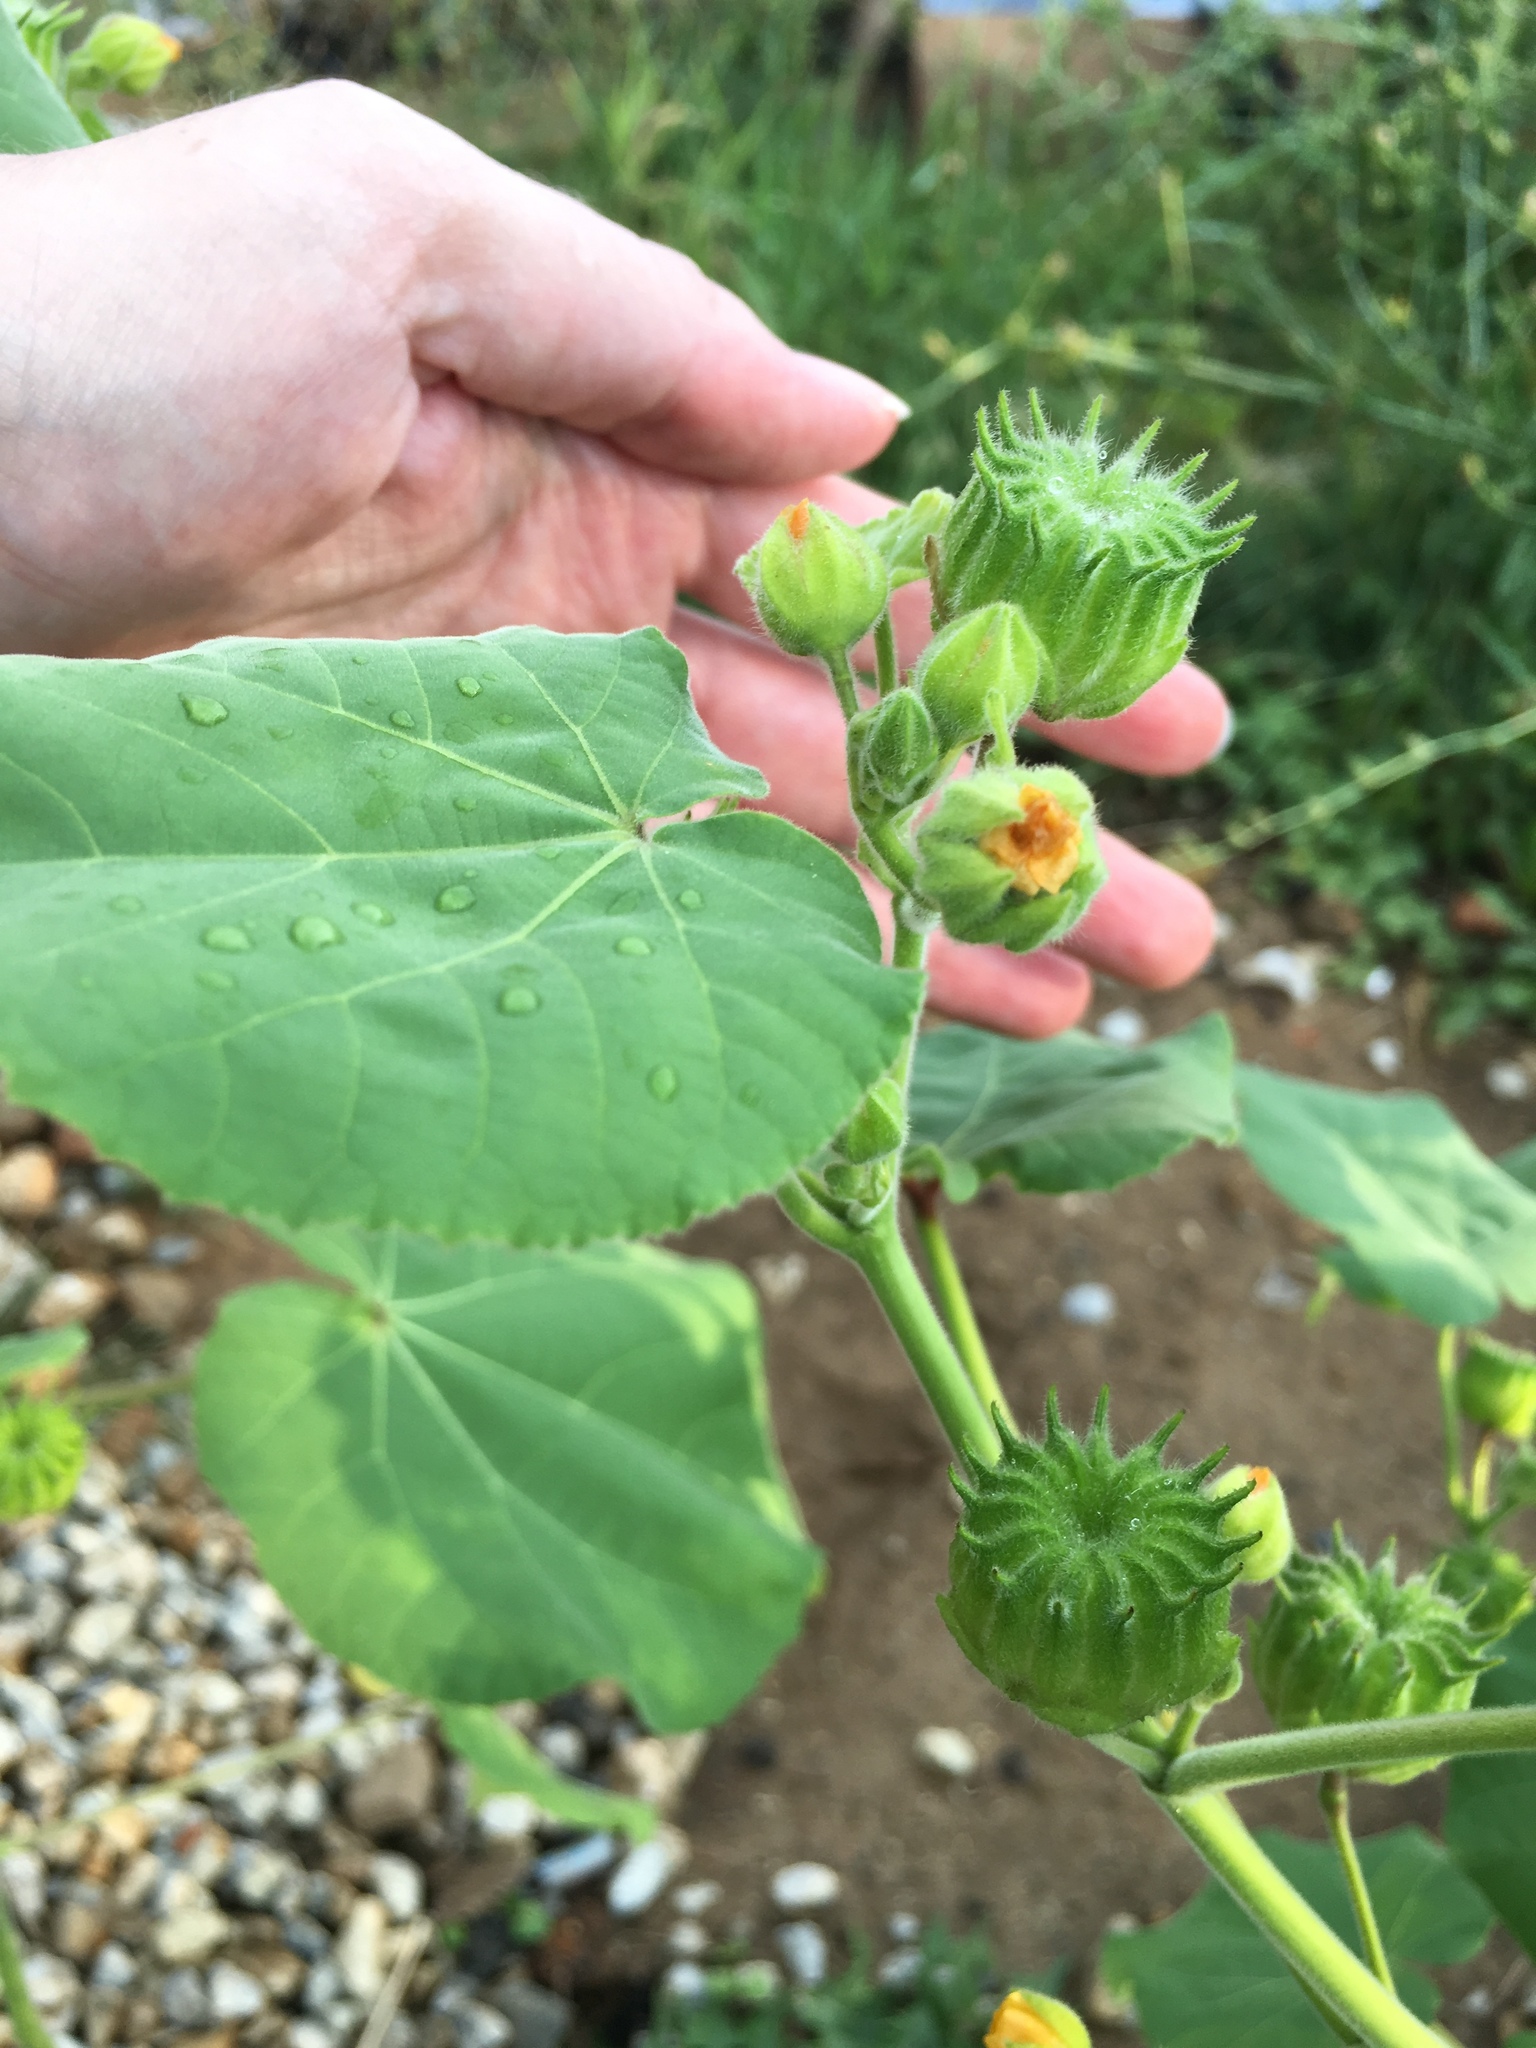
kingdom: Plantae
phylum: Tracheophyta
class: Magnoliopsida
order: Malvales
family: Malvaceae
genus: Abutilon
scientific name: Abutilon theophrasti
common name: Velvetleaf
